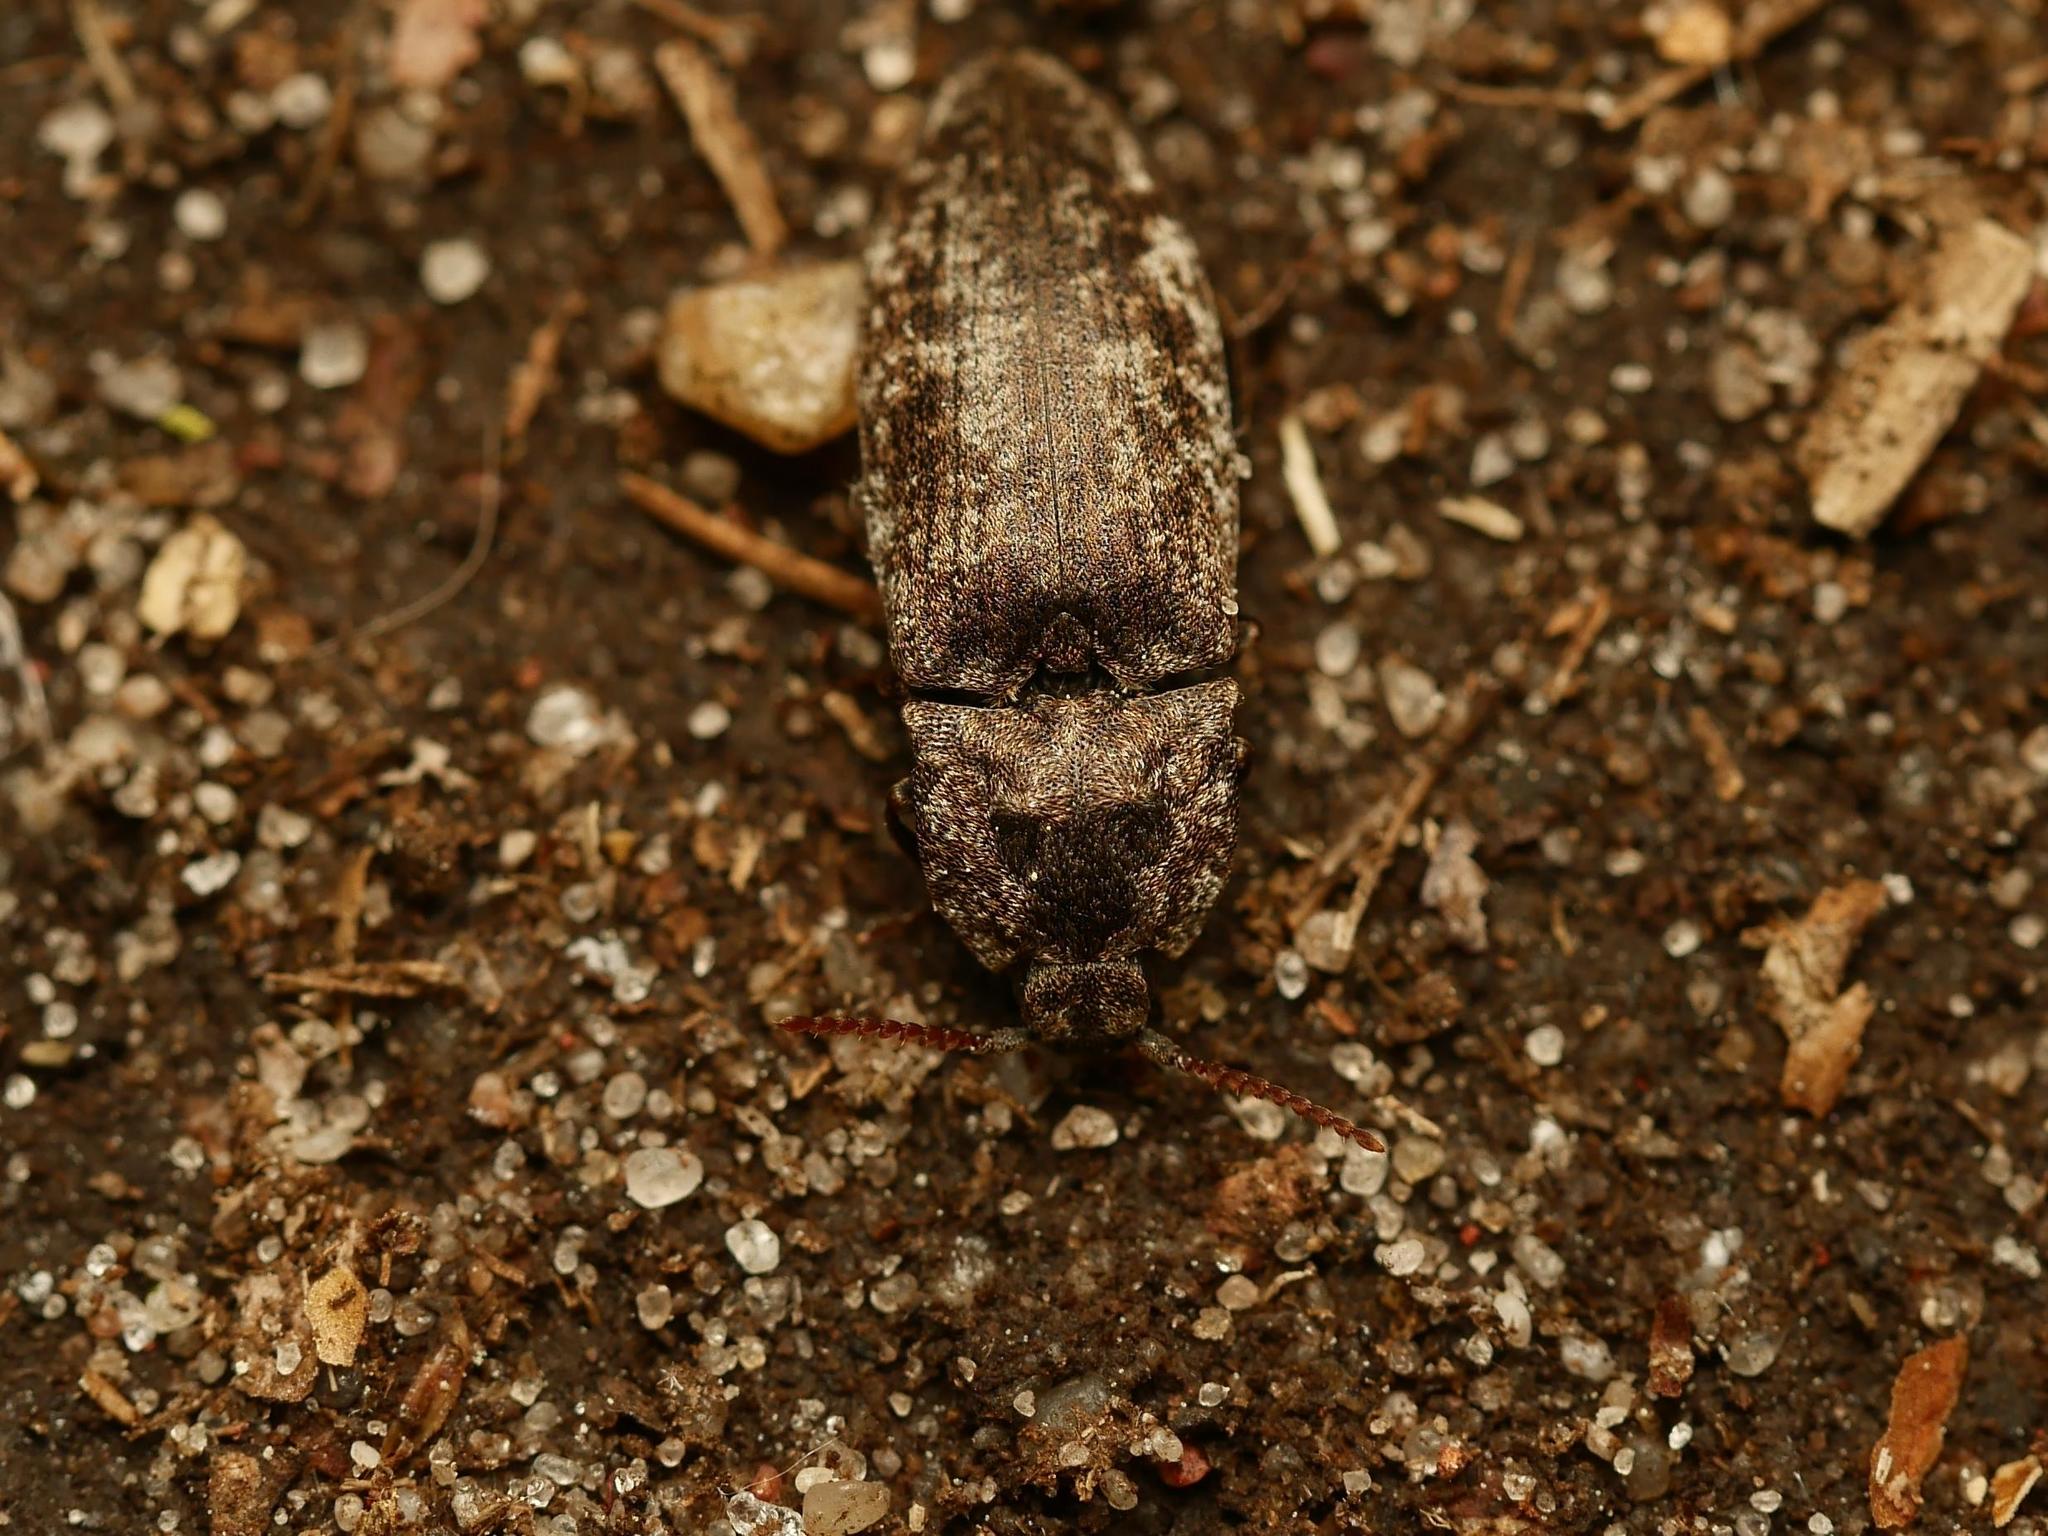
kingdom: Animalia
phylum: Arthropoda
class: Insecta
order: Coleoptera
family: Elateridae
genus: Agrypnus
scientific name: Agrypnus murinus
